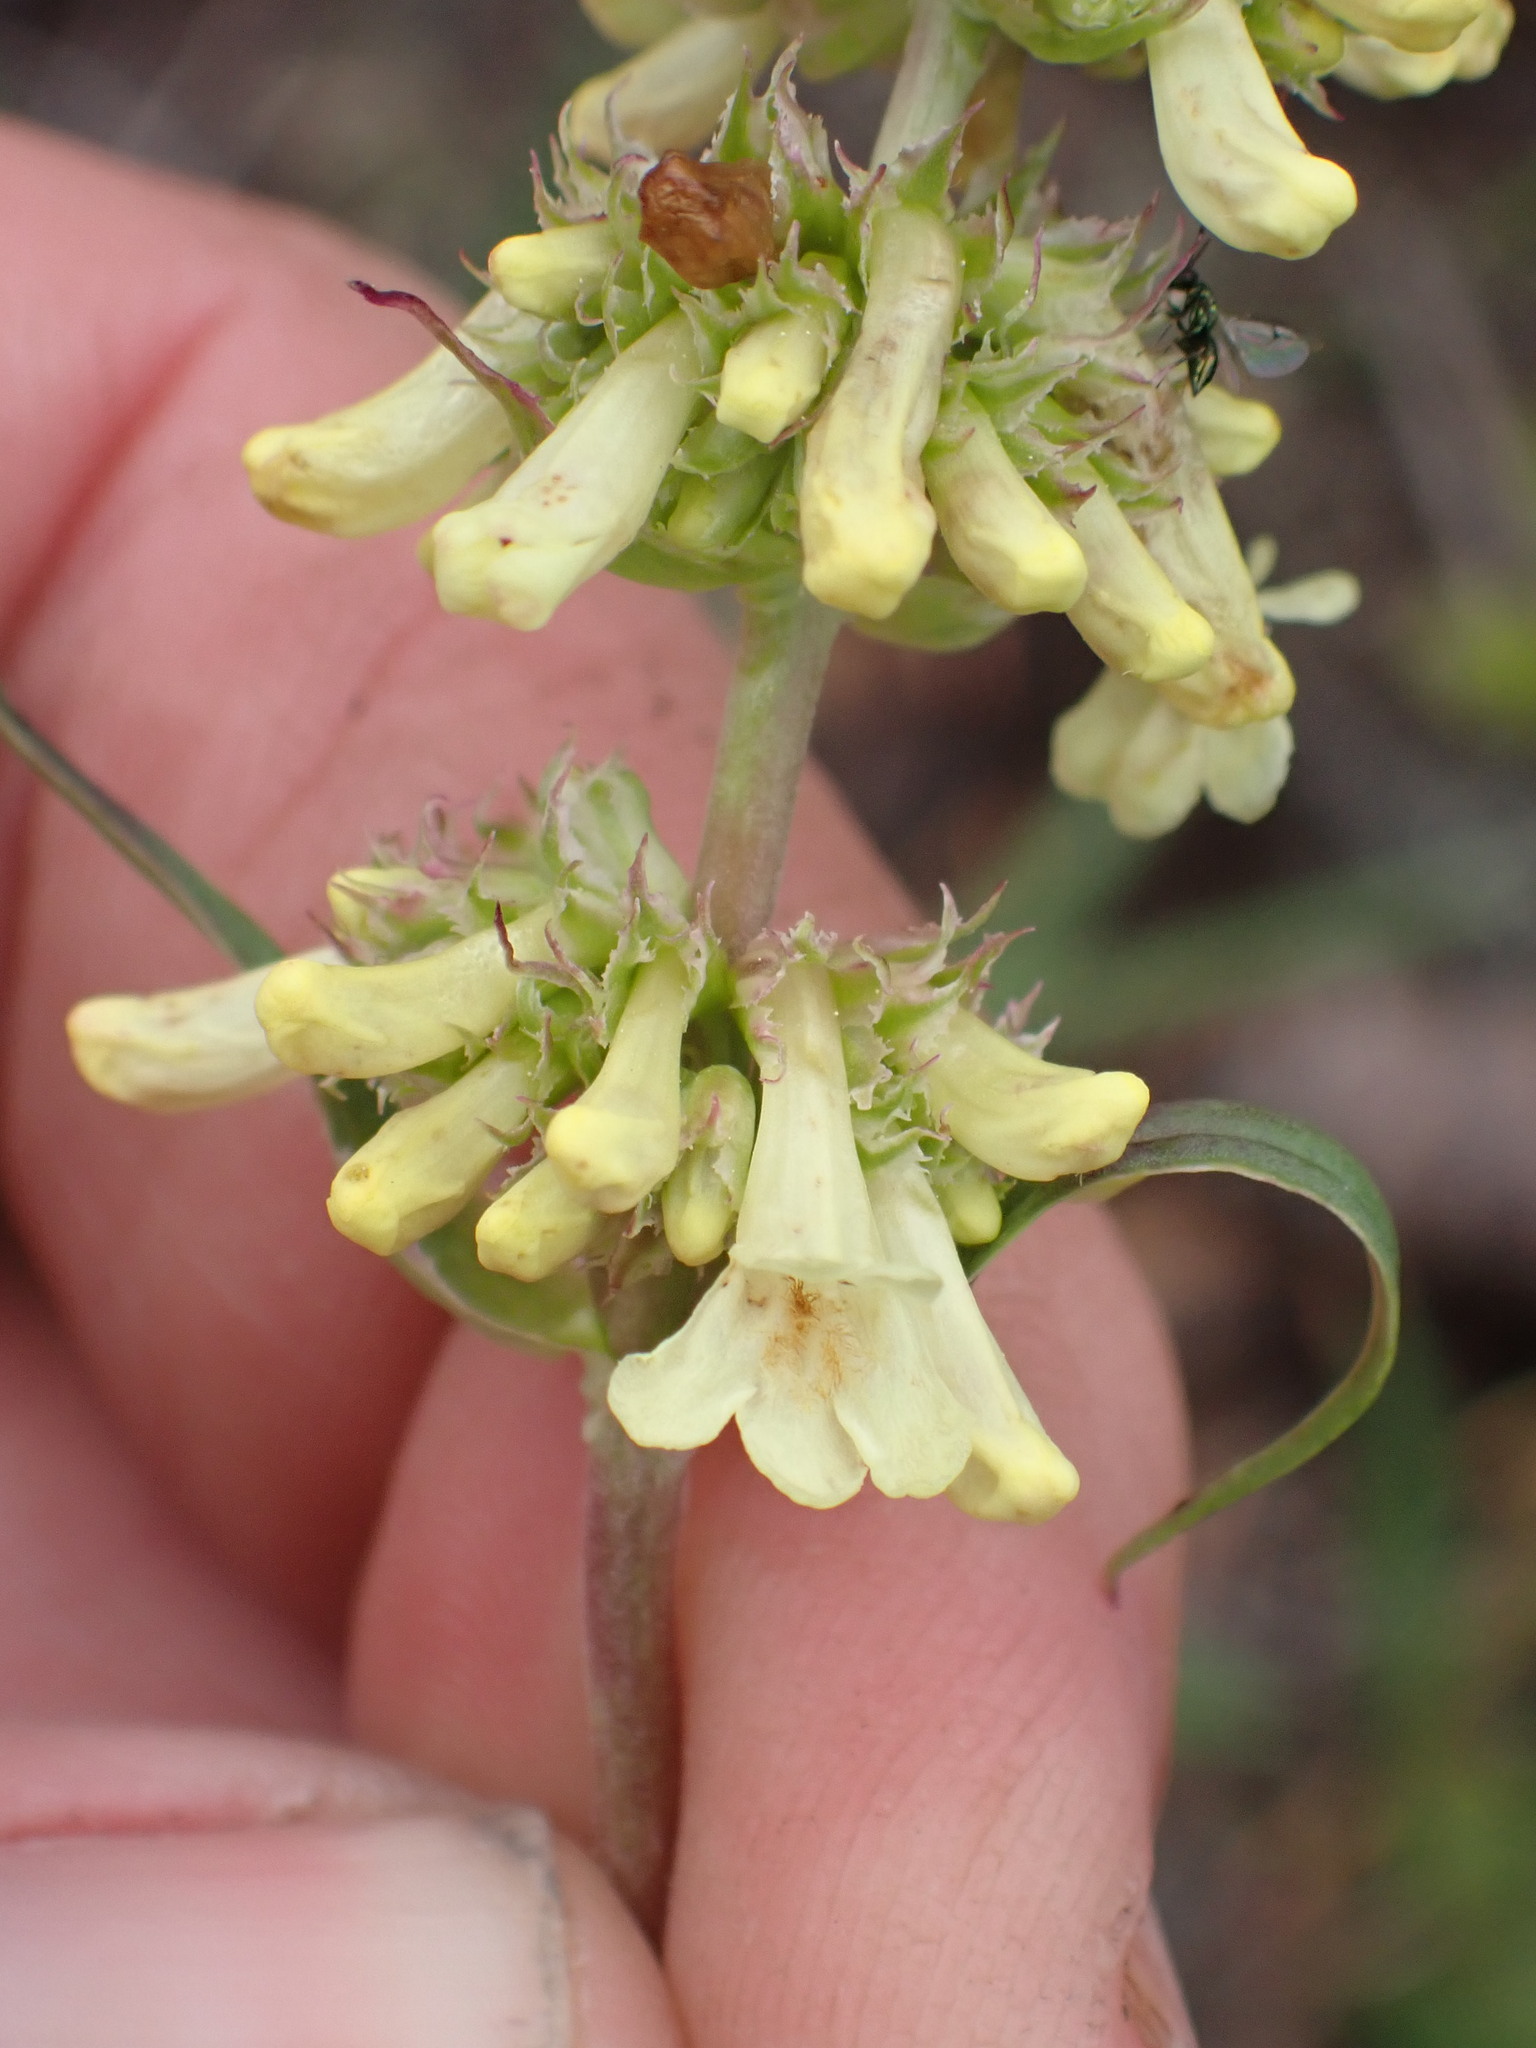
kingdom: Plantae
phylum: Tracheophyta
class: Magnoliopsida
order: Lamiales
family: Plantaginaceae
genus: Penstemon
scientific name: Penstemon confertus
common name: Lesser yellow beardtongue
